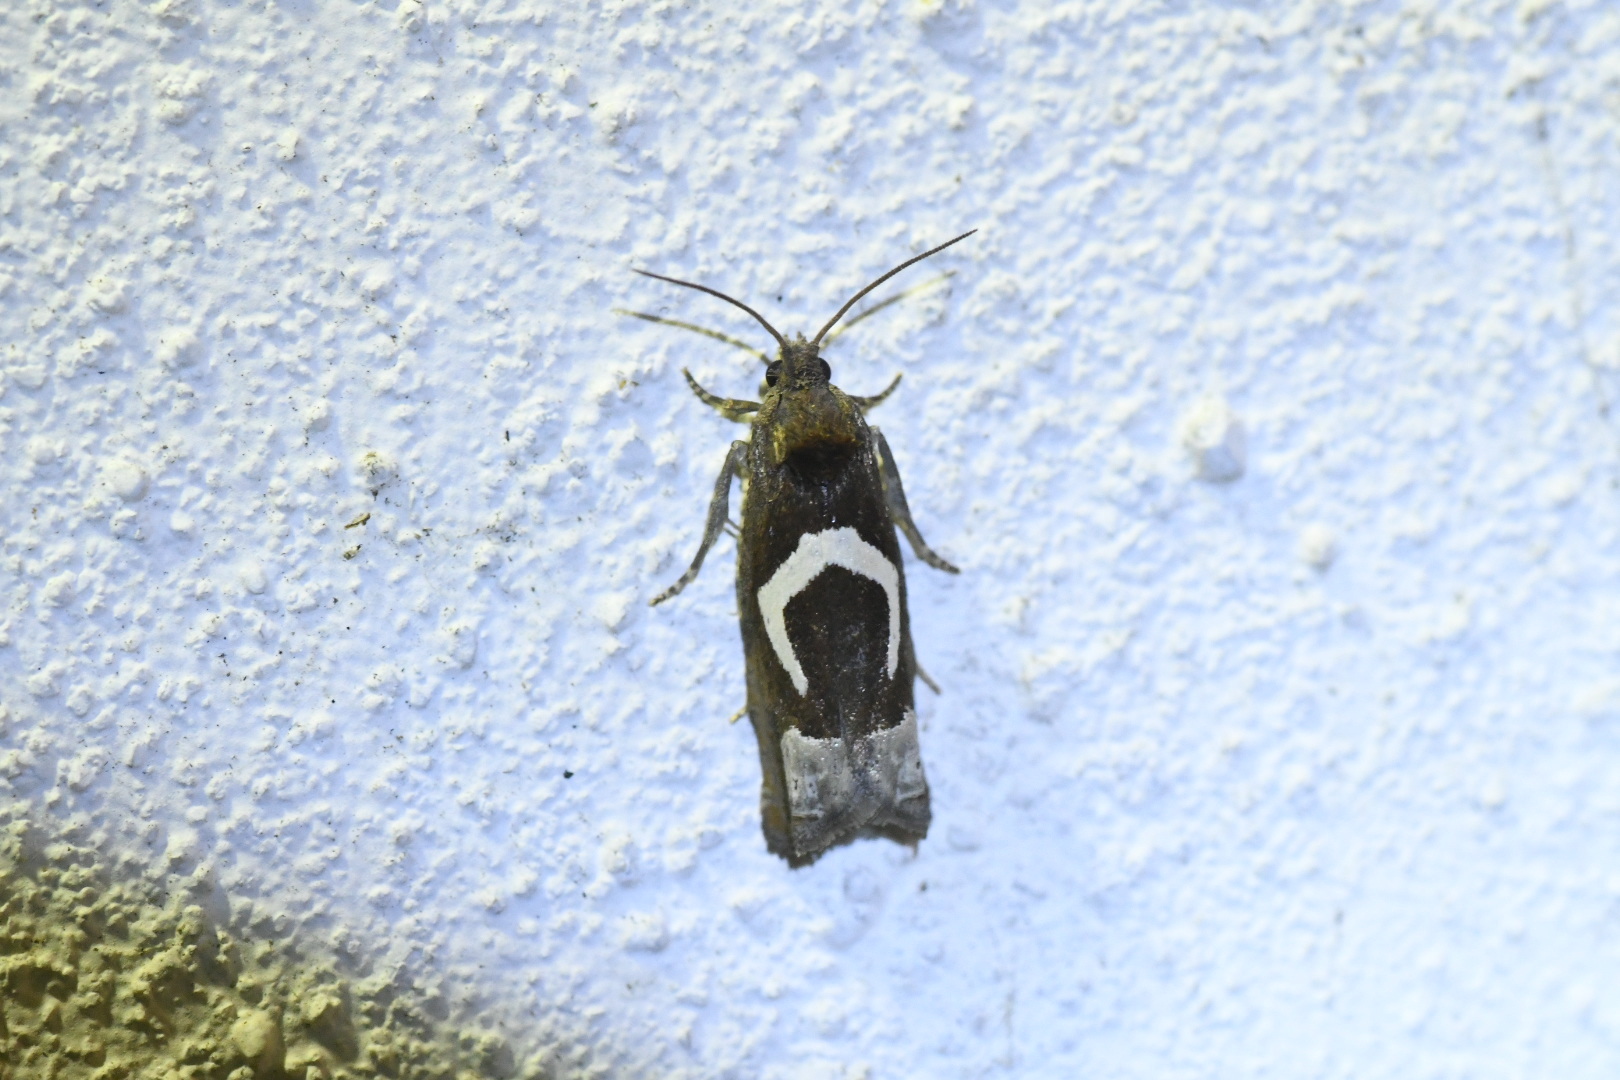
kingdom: Animalia
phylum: Arthropoda
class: Insecta
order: Lepidoptera
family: Tortricidae
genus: Epiblema
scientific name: Epiblema foenella
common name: White-foot bell
